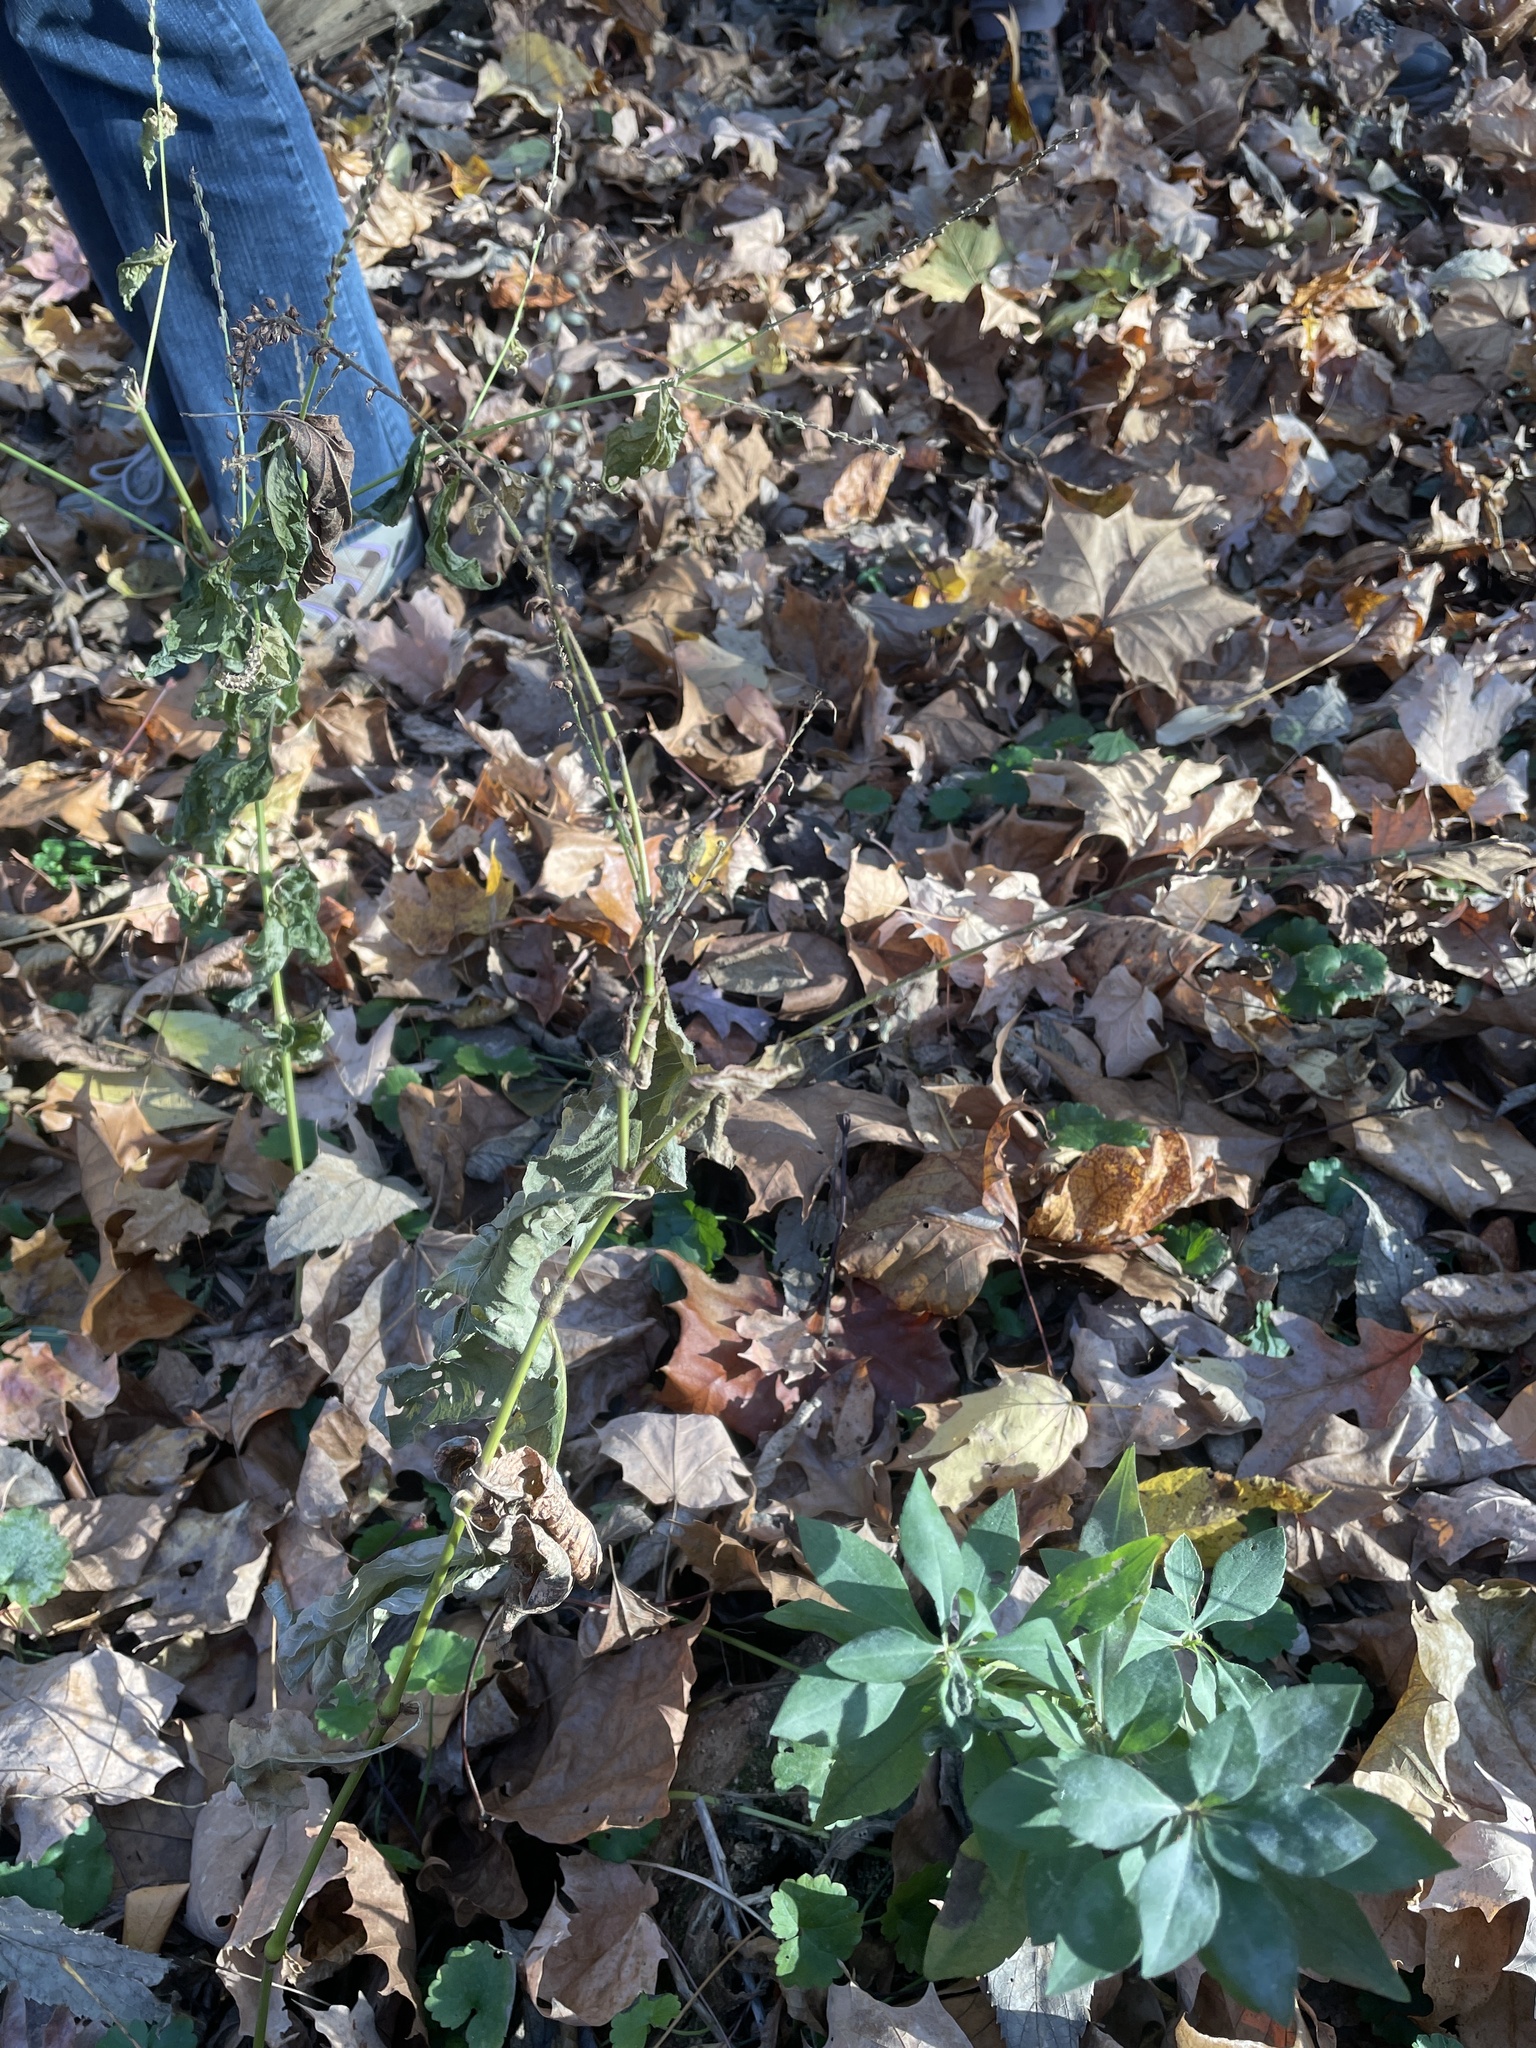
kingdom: Plantae
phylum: Tracheophyta
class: Magnoliopsida
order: Caryophyllales
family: Polygonaceae
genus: Persicaria
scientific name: Persicaria virginiana
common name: Jumpseed
